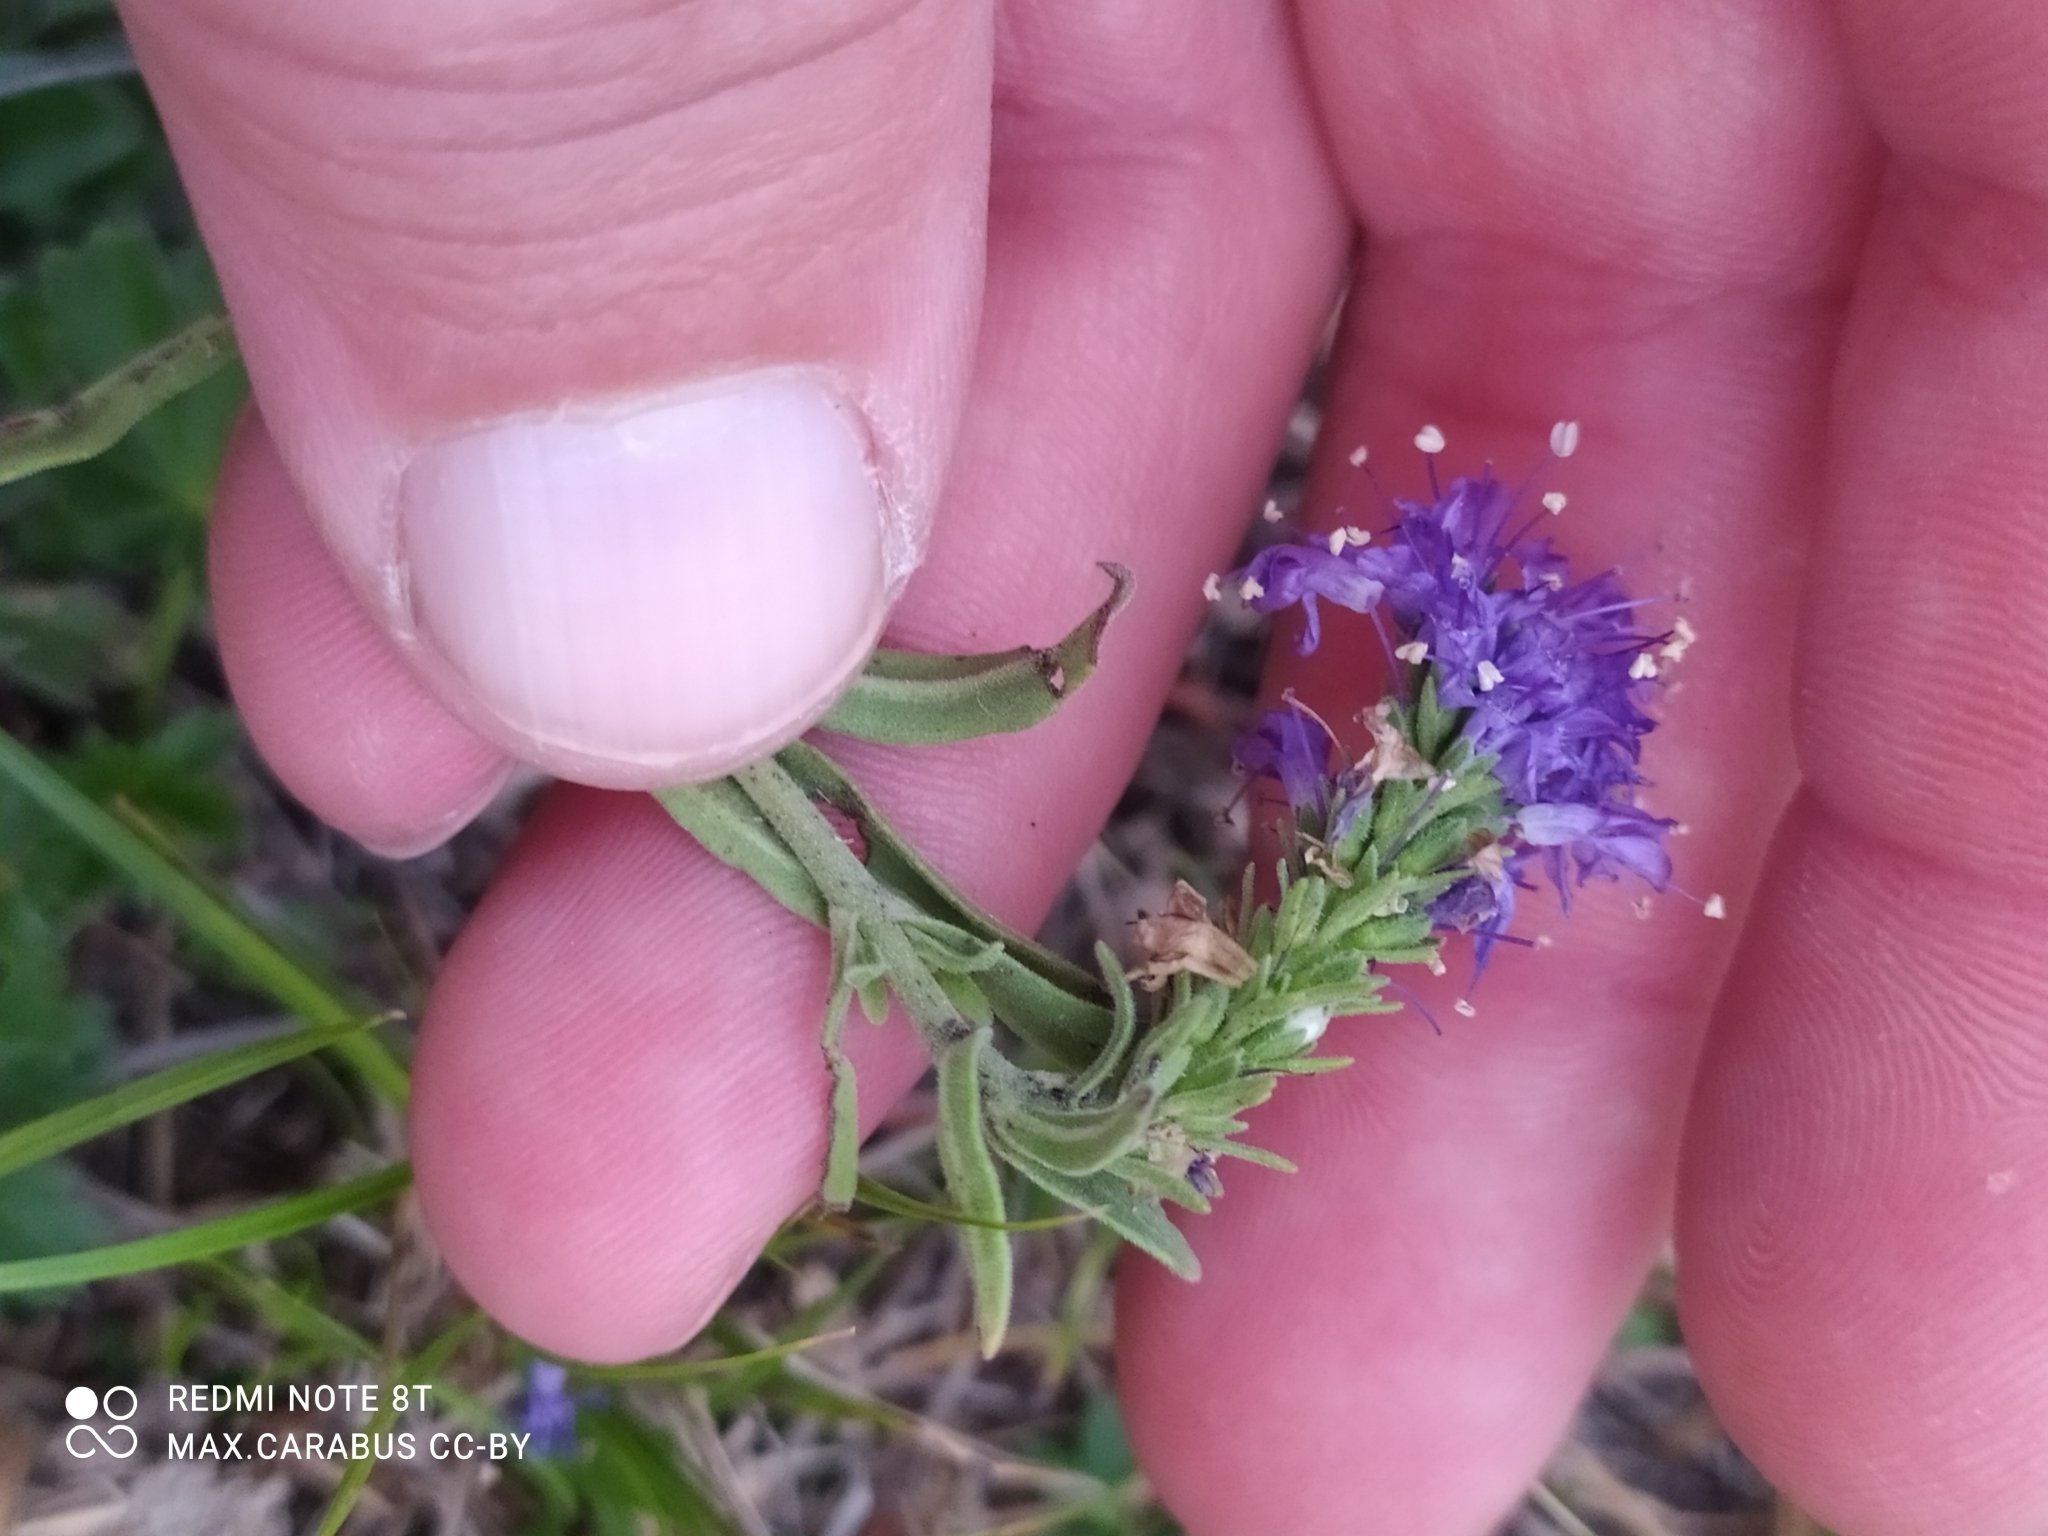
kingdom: Plantae
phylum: Tracheophyta
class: Magnoliopsida
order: Lamiales
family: Plantaginaceae
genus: Veronica
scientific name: Veronica incana
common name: Silver speedwell
